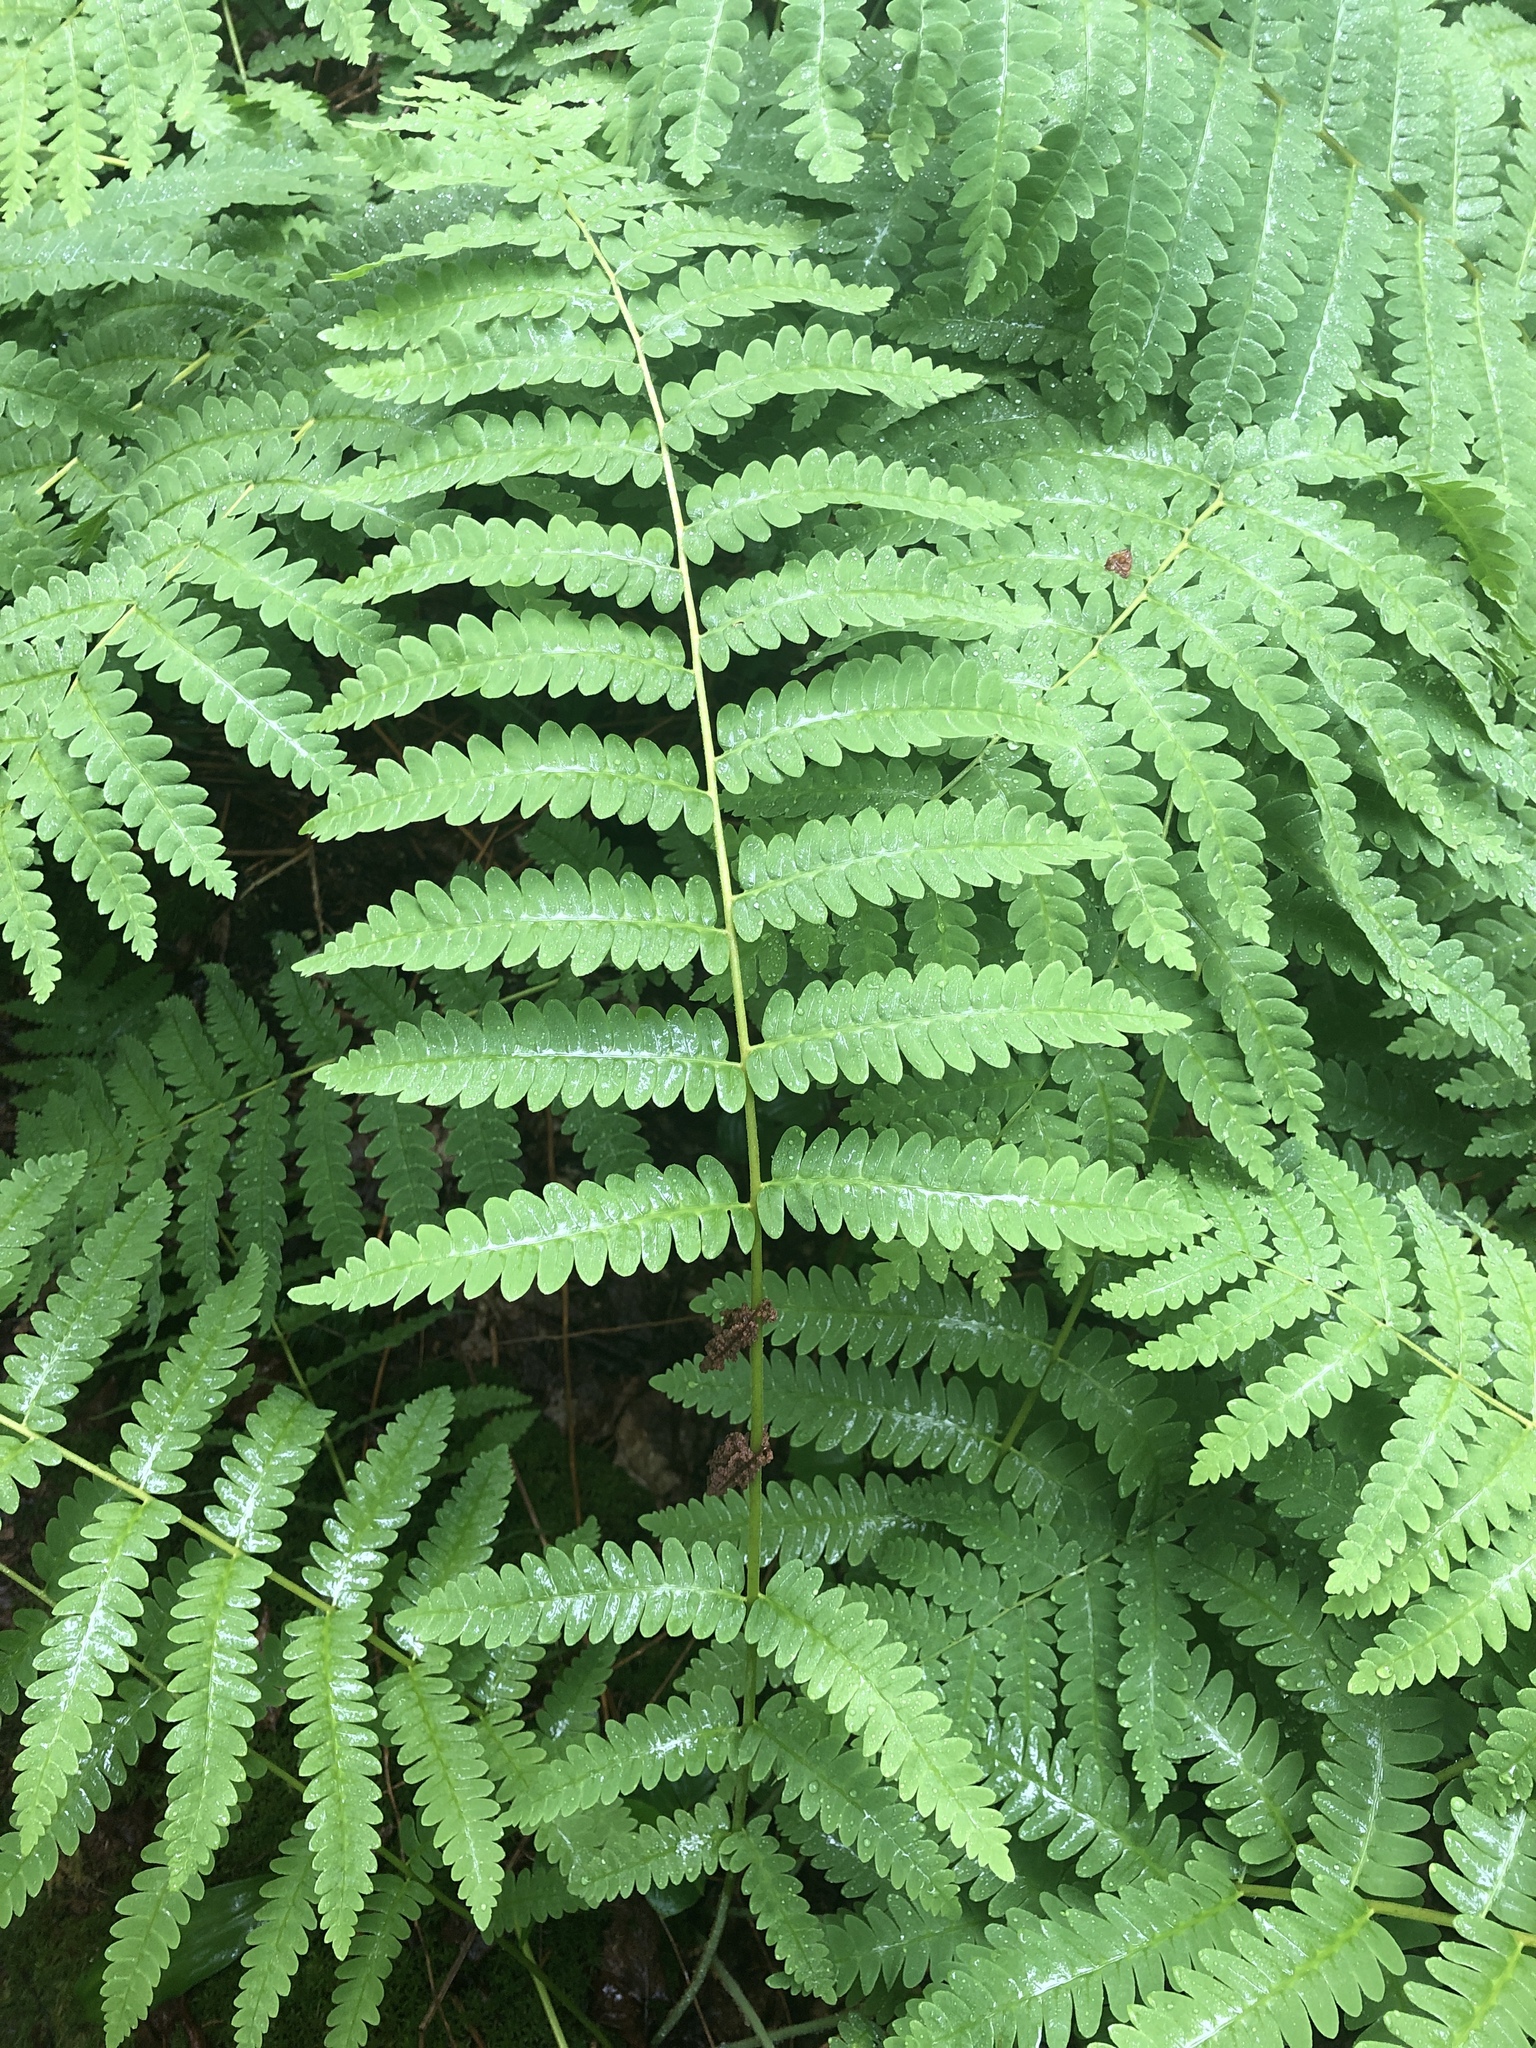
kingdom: Plantae
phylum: Tracheophyta
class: Polypodiopsida
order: Osmundales
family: Osmundaceae
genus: Claytosmunda
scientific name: Claytosmunda claytoniana
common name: Clayton's fern
